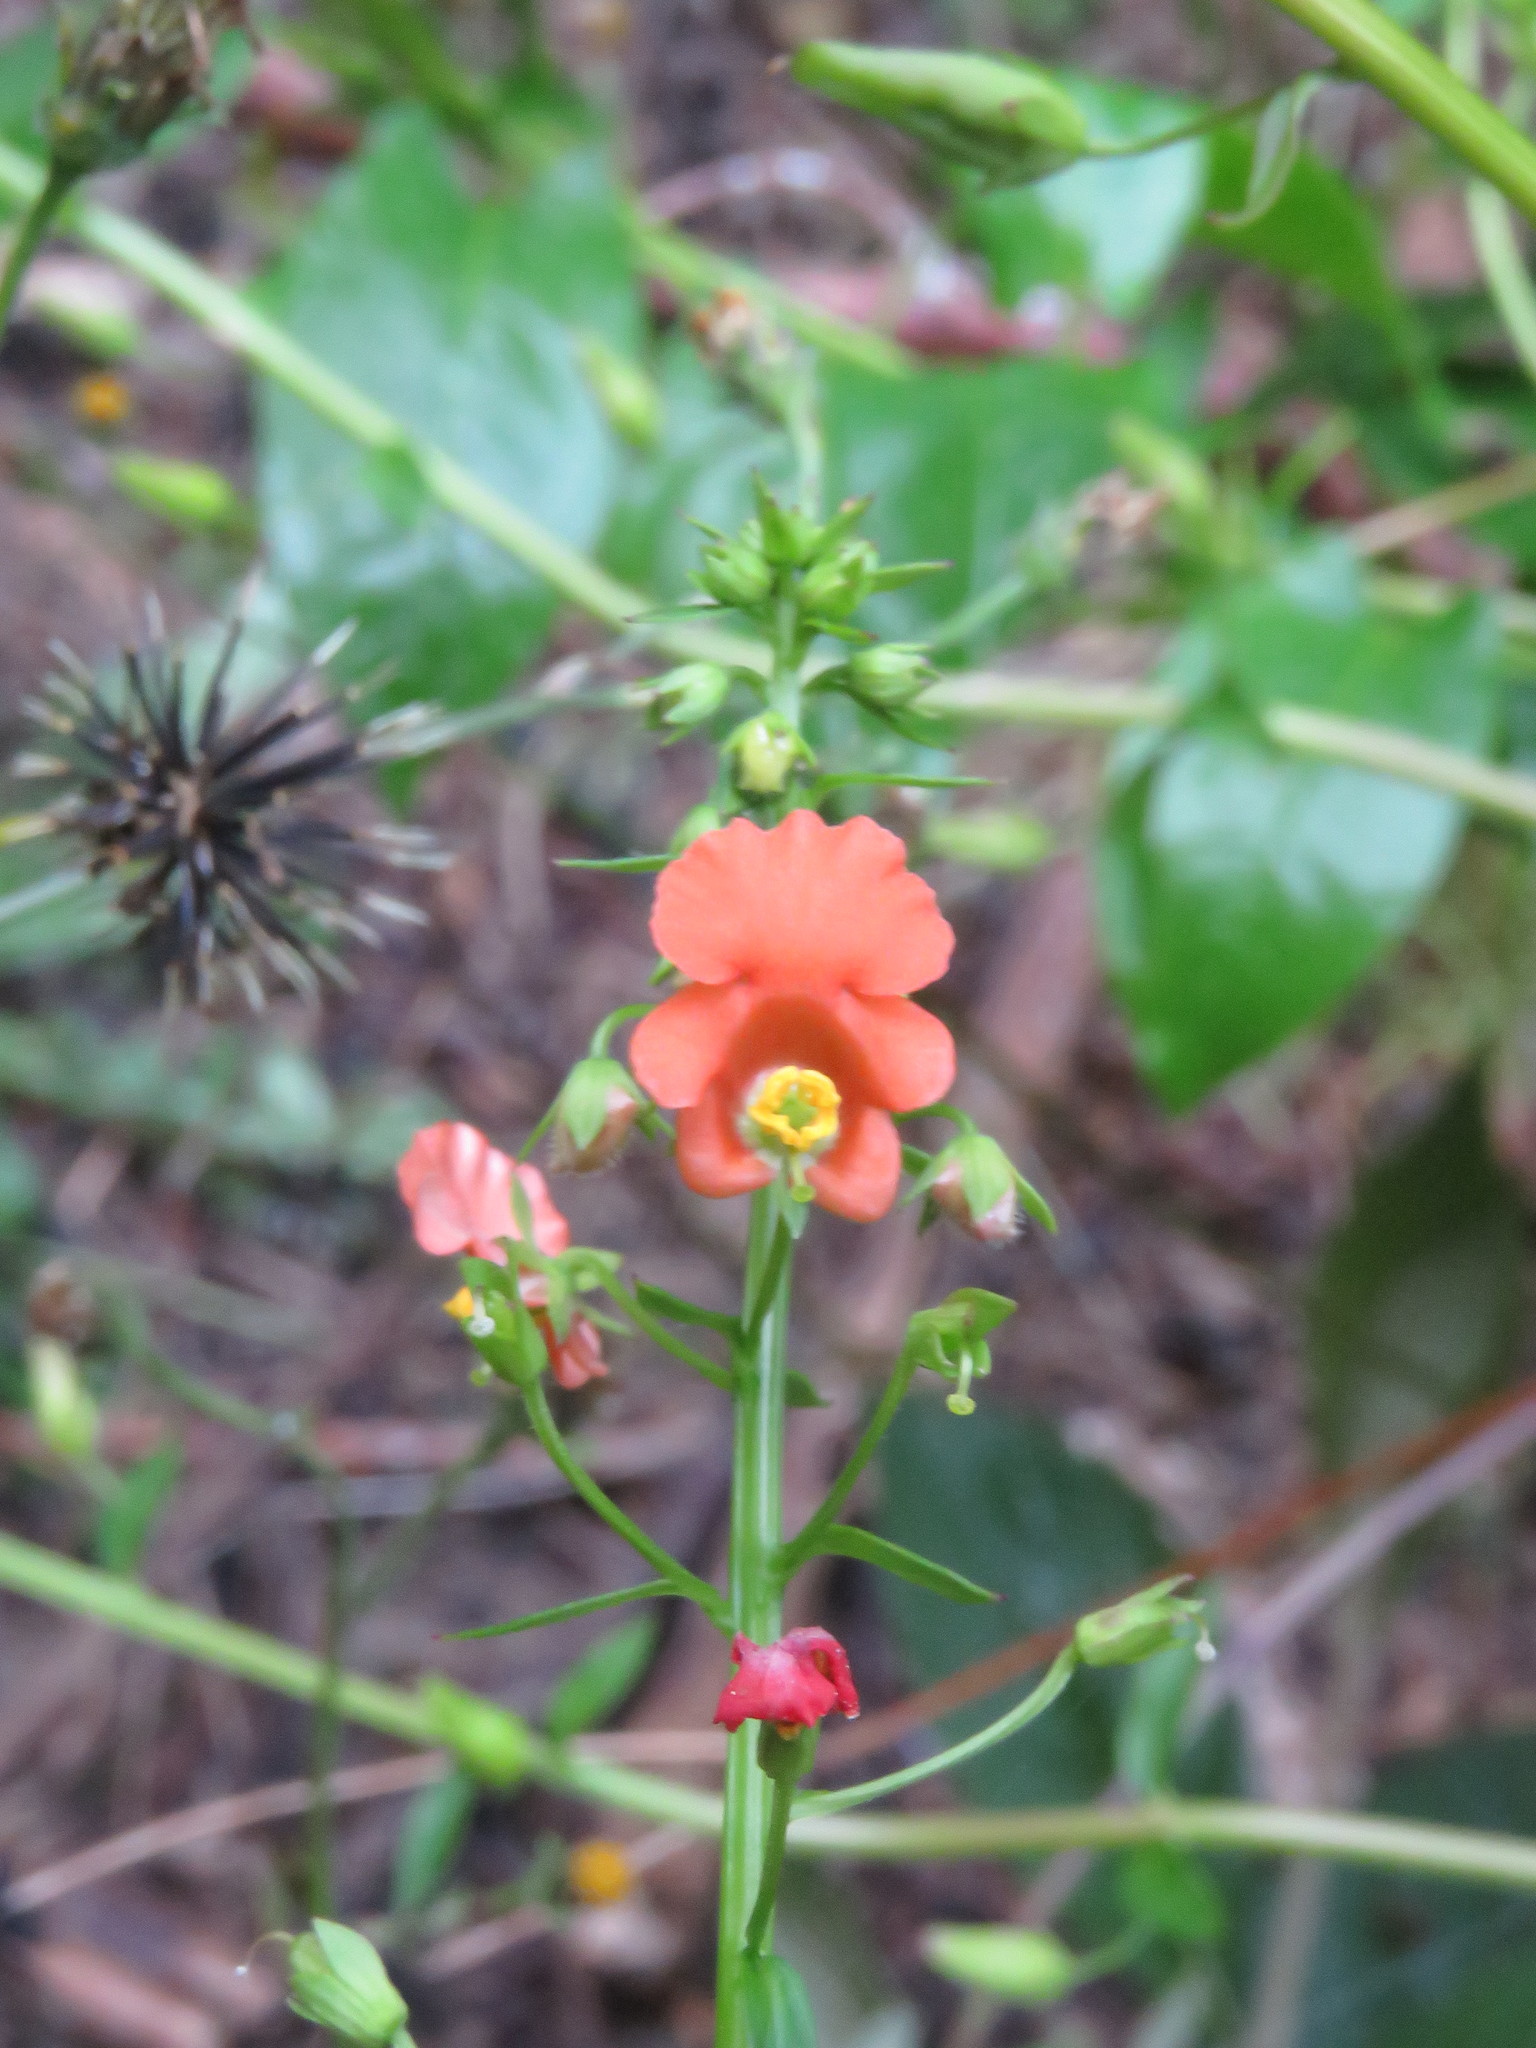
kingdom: Plantae
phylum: Tracheophyta
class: Magnoliopsida
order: Lamiales
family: Scrophulariaceae
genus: Alonsoa
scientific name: Alonsoa meridionalis
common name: Maskflower
